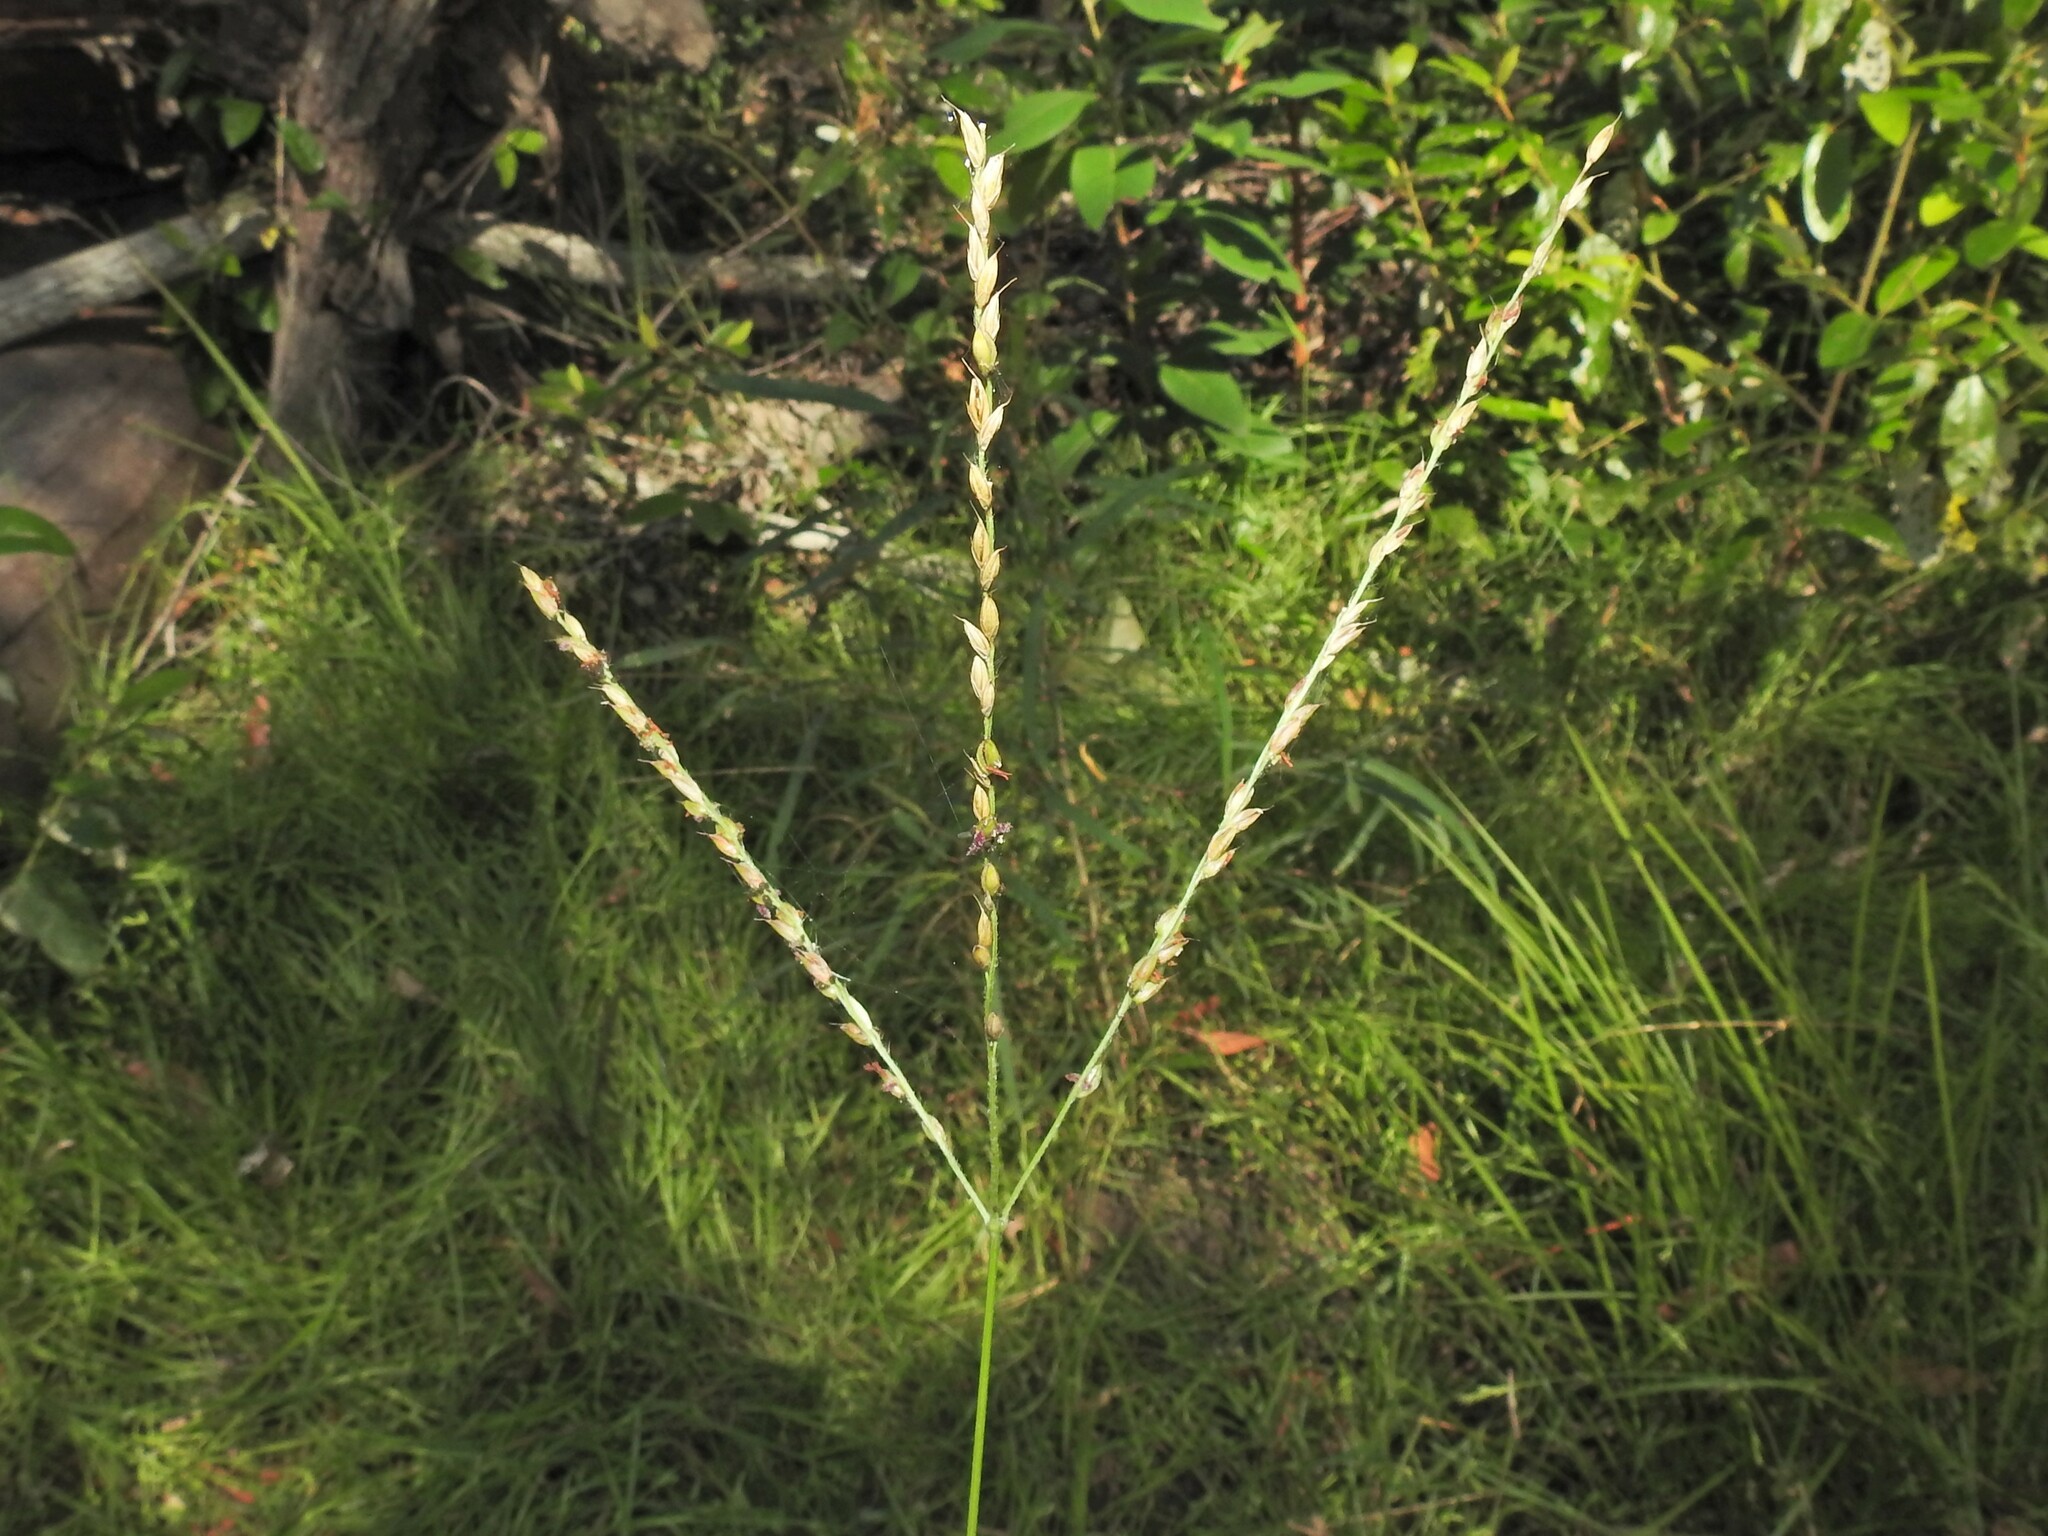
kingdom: Plantae
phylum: Tracheophyta
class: Liliopsida
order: Poales
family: Poaceae
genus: Alloteropsis
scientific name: Alloteropsis semialata
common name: Cockatoo grass
